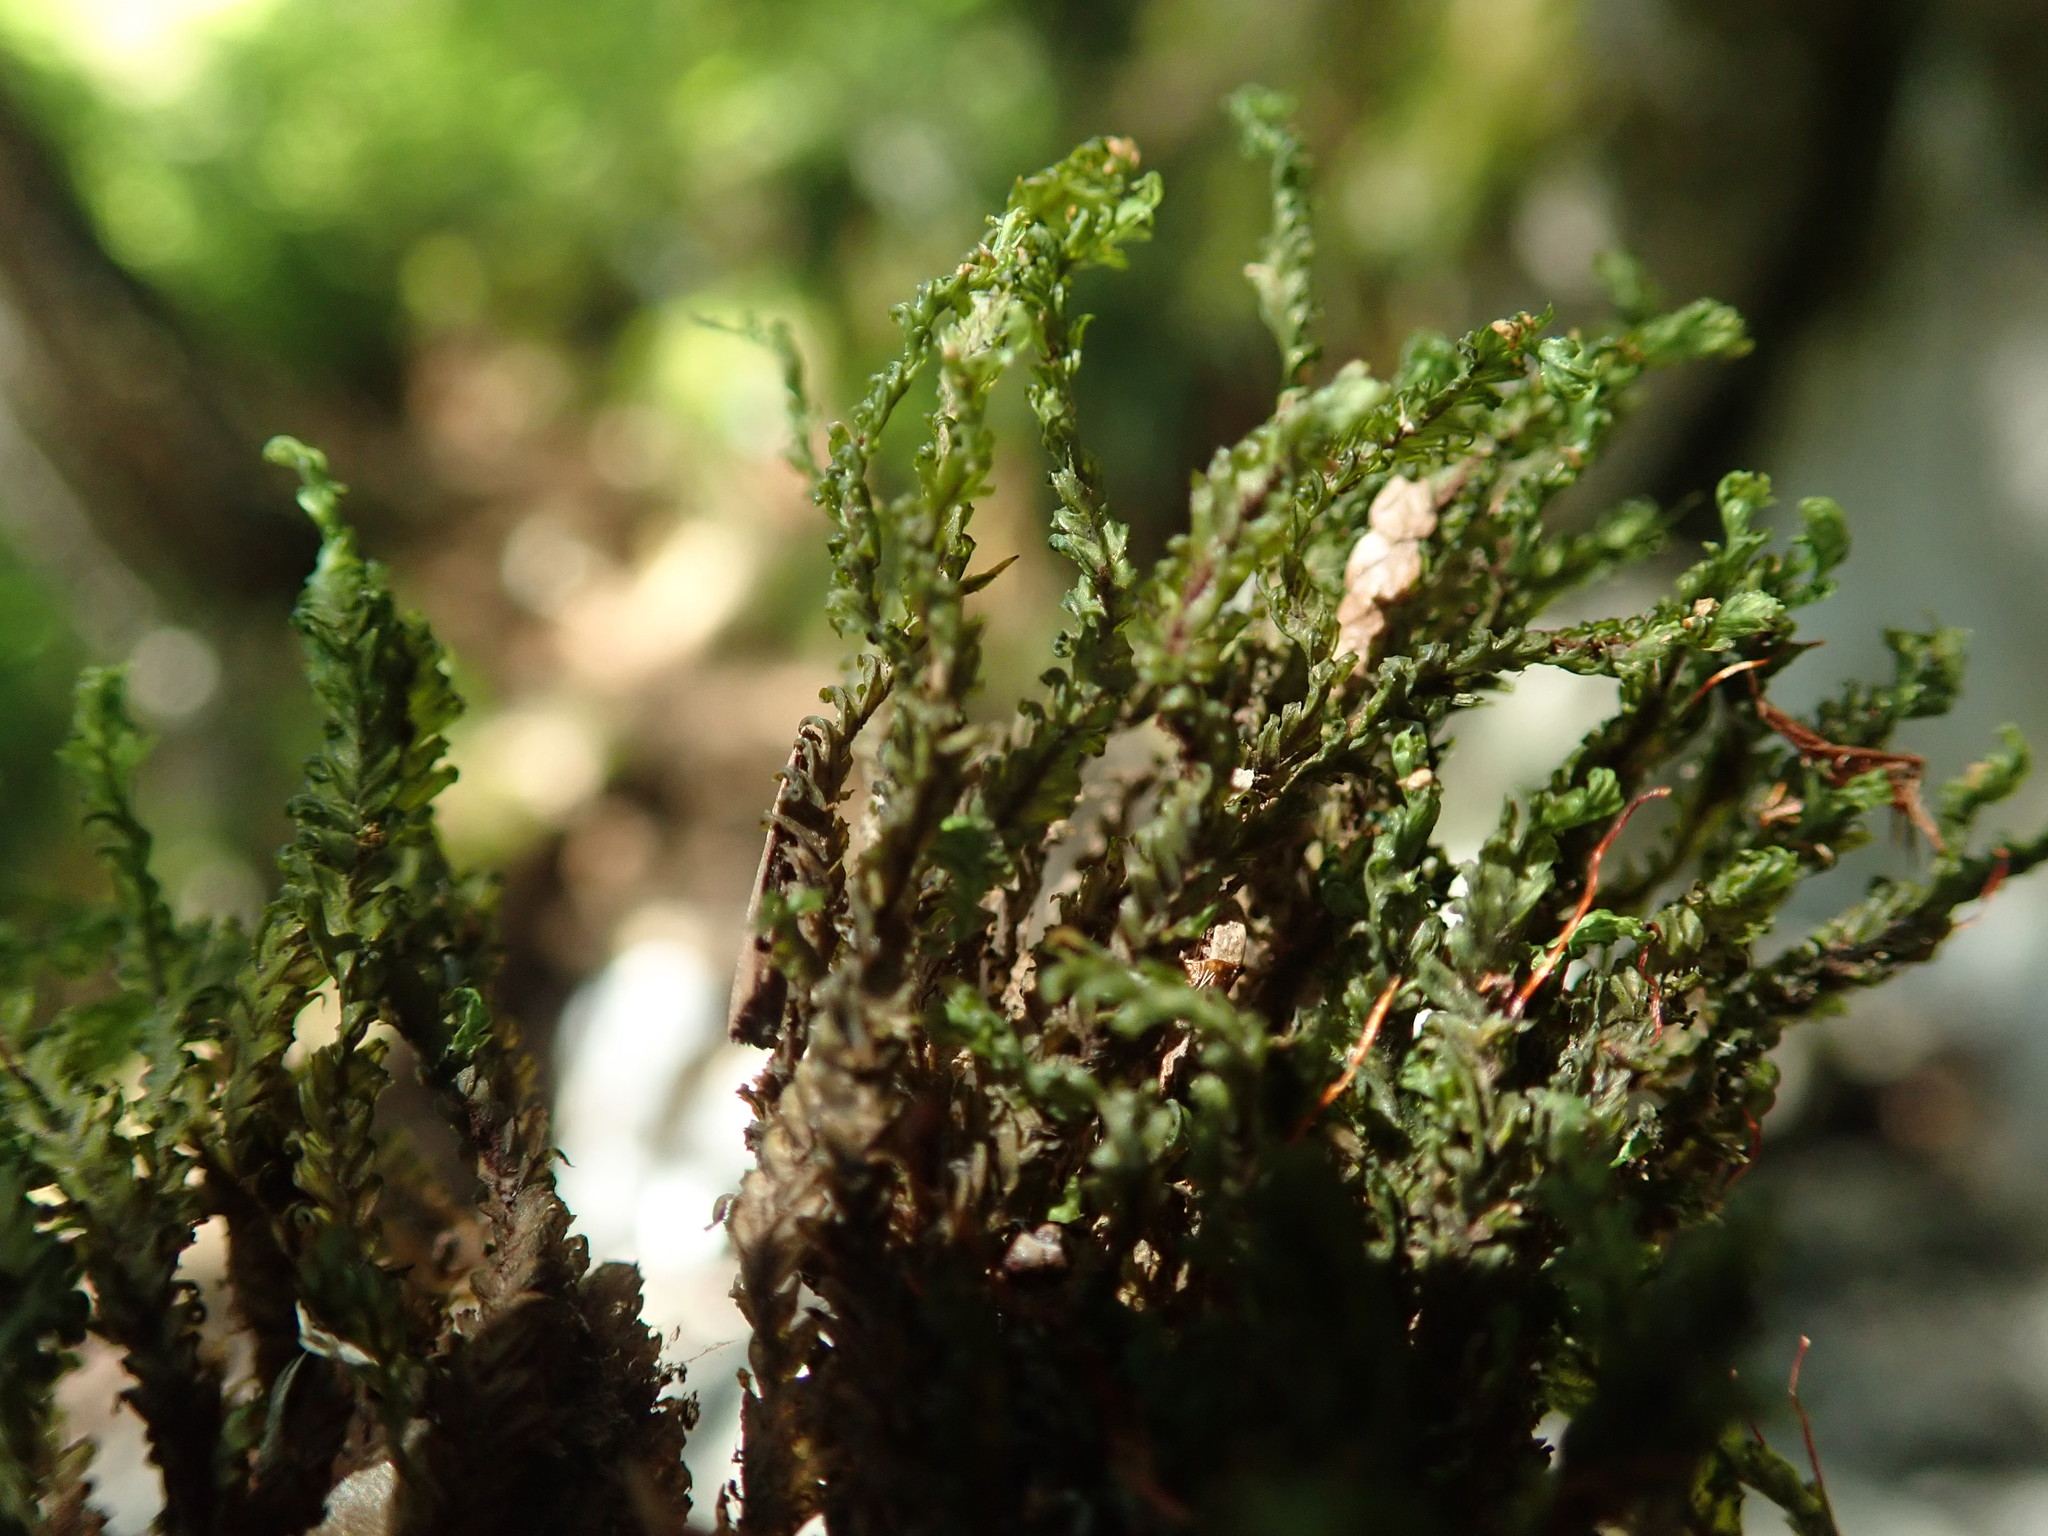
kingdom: Plantae
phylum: Bryophyta
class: Bryopsida
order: Dicranales
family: Fissidentaceae
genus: Fissidens
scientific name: Fissidens adianthoides
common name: Maidenhair pocket moss
